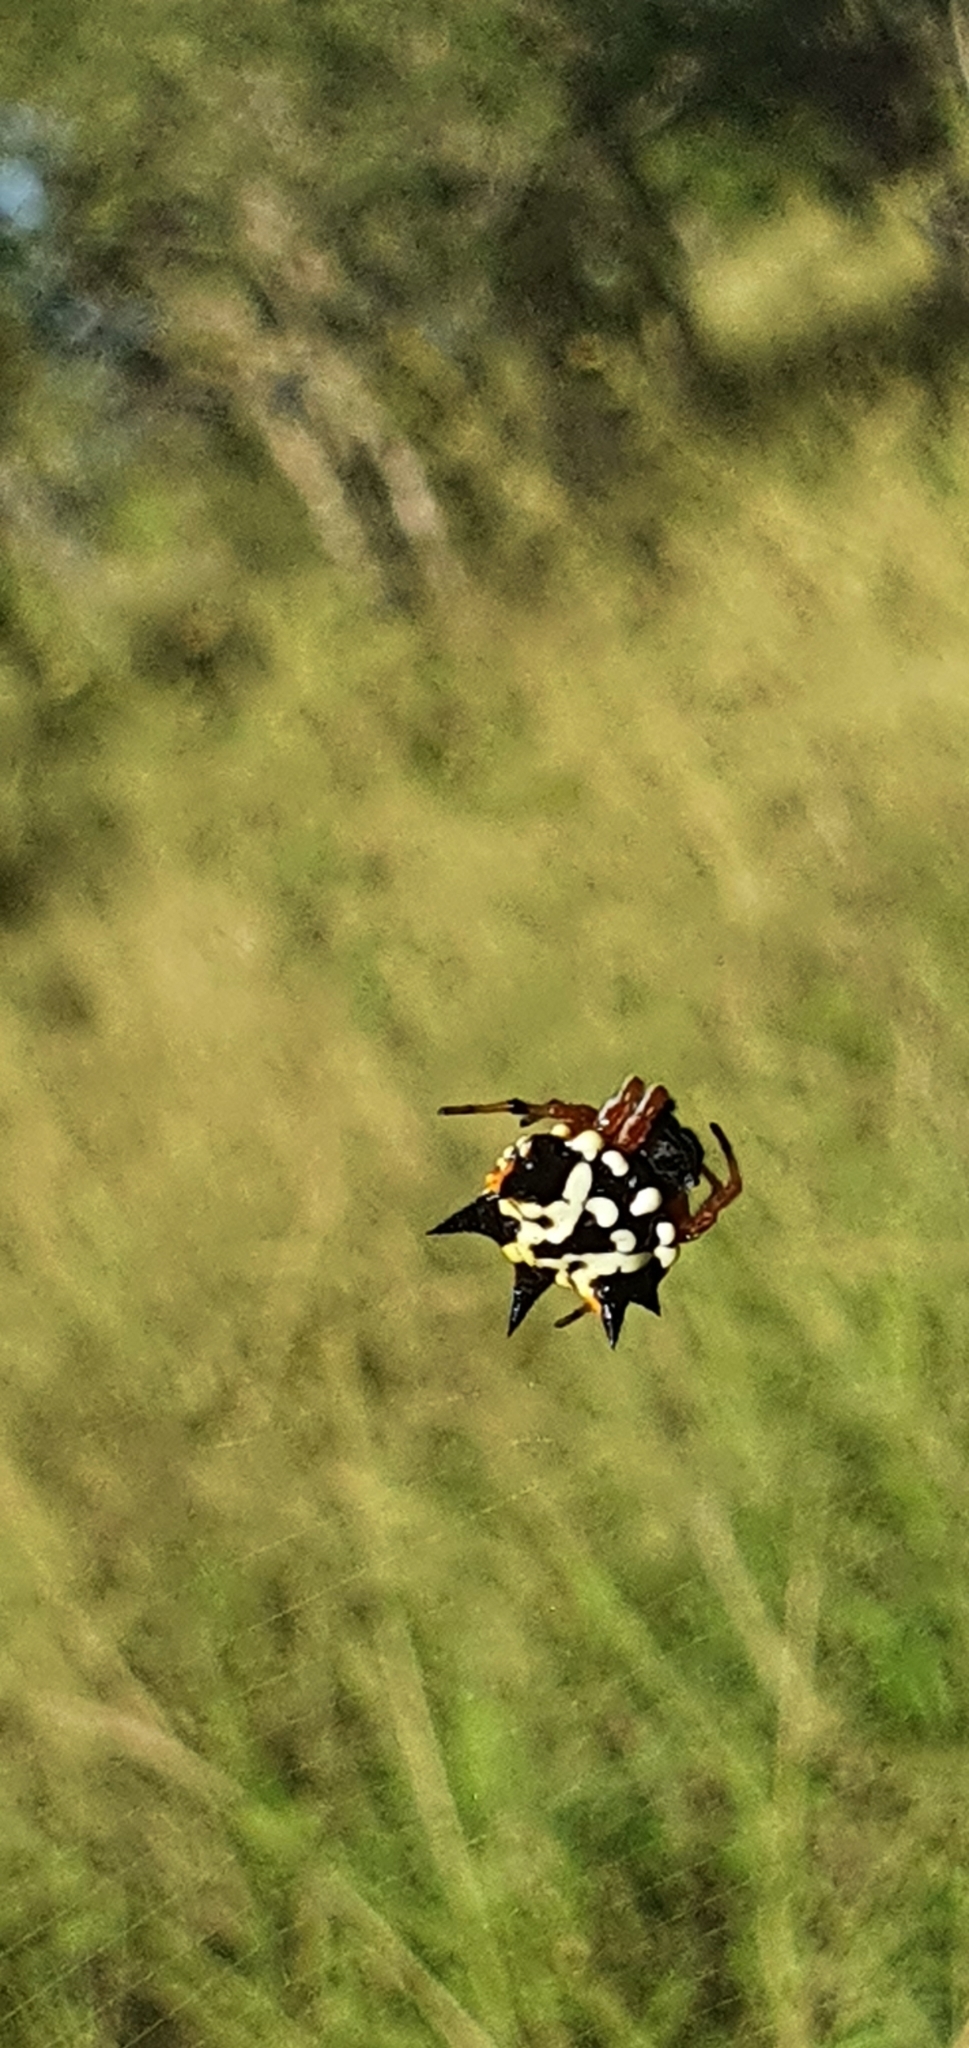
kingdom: Animalia
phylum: Arthropoda
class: Arachnida
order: Araneae
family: Araneidae
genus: Austracantha
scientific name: Austracantha minax
